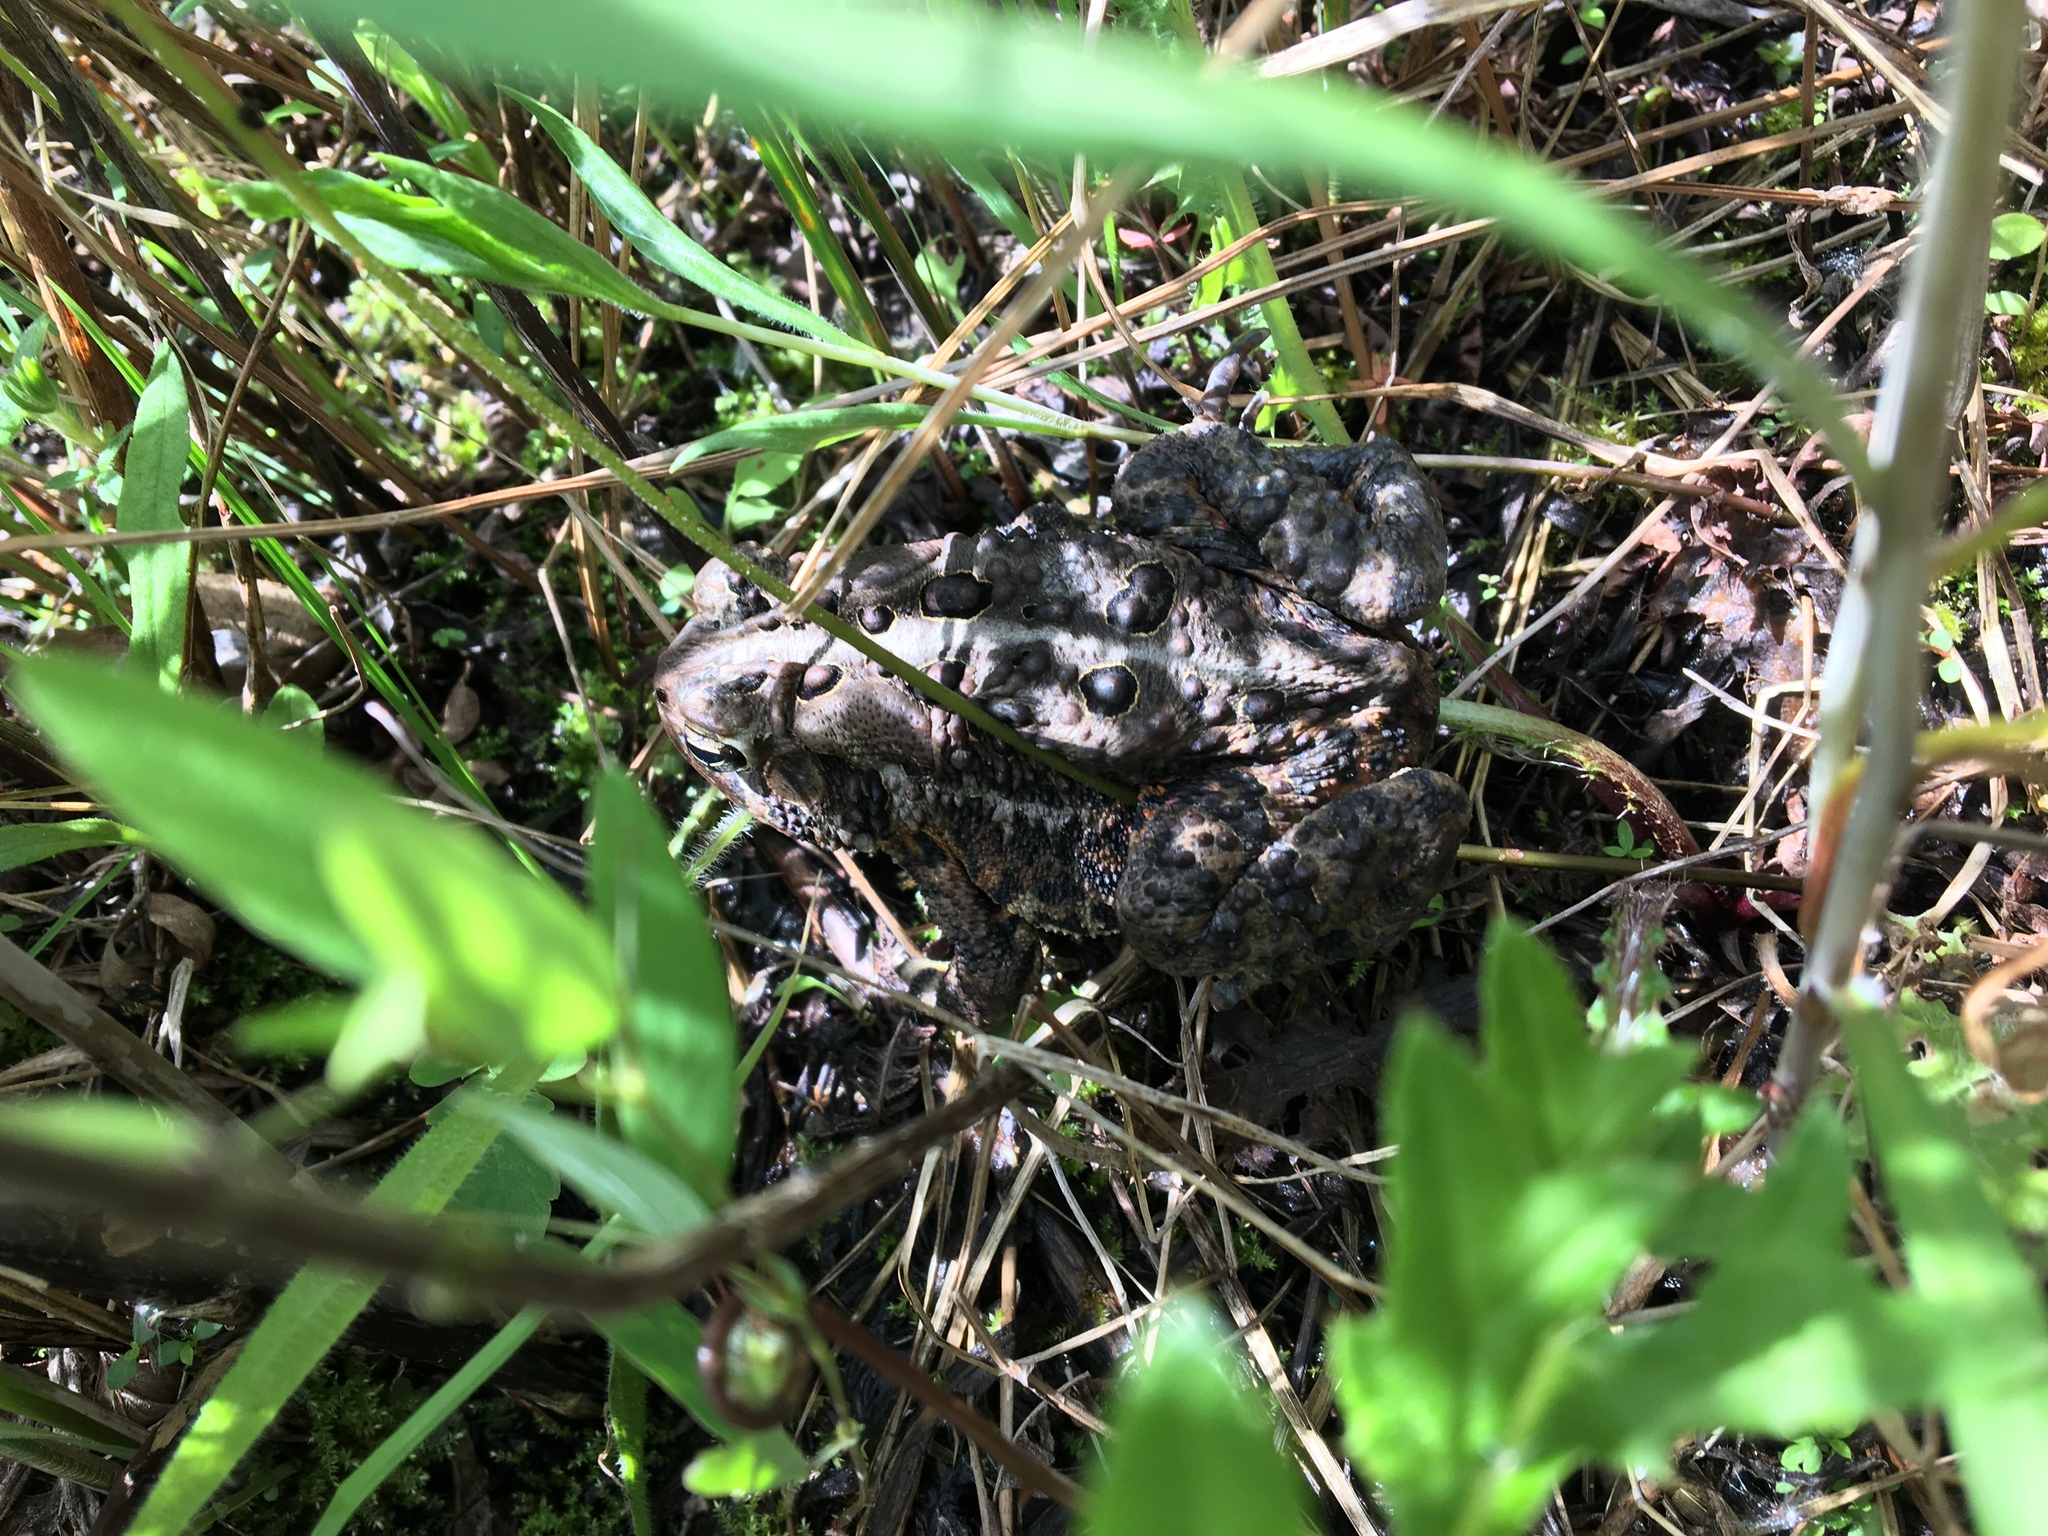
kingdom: Animalia
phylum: Chordata
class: Amphibia
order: Anura
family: Bufonidae
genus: Anaxyrus
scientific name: Anaxyrus americanus
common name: American toad
